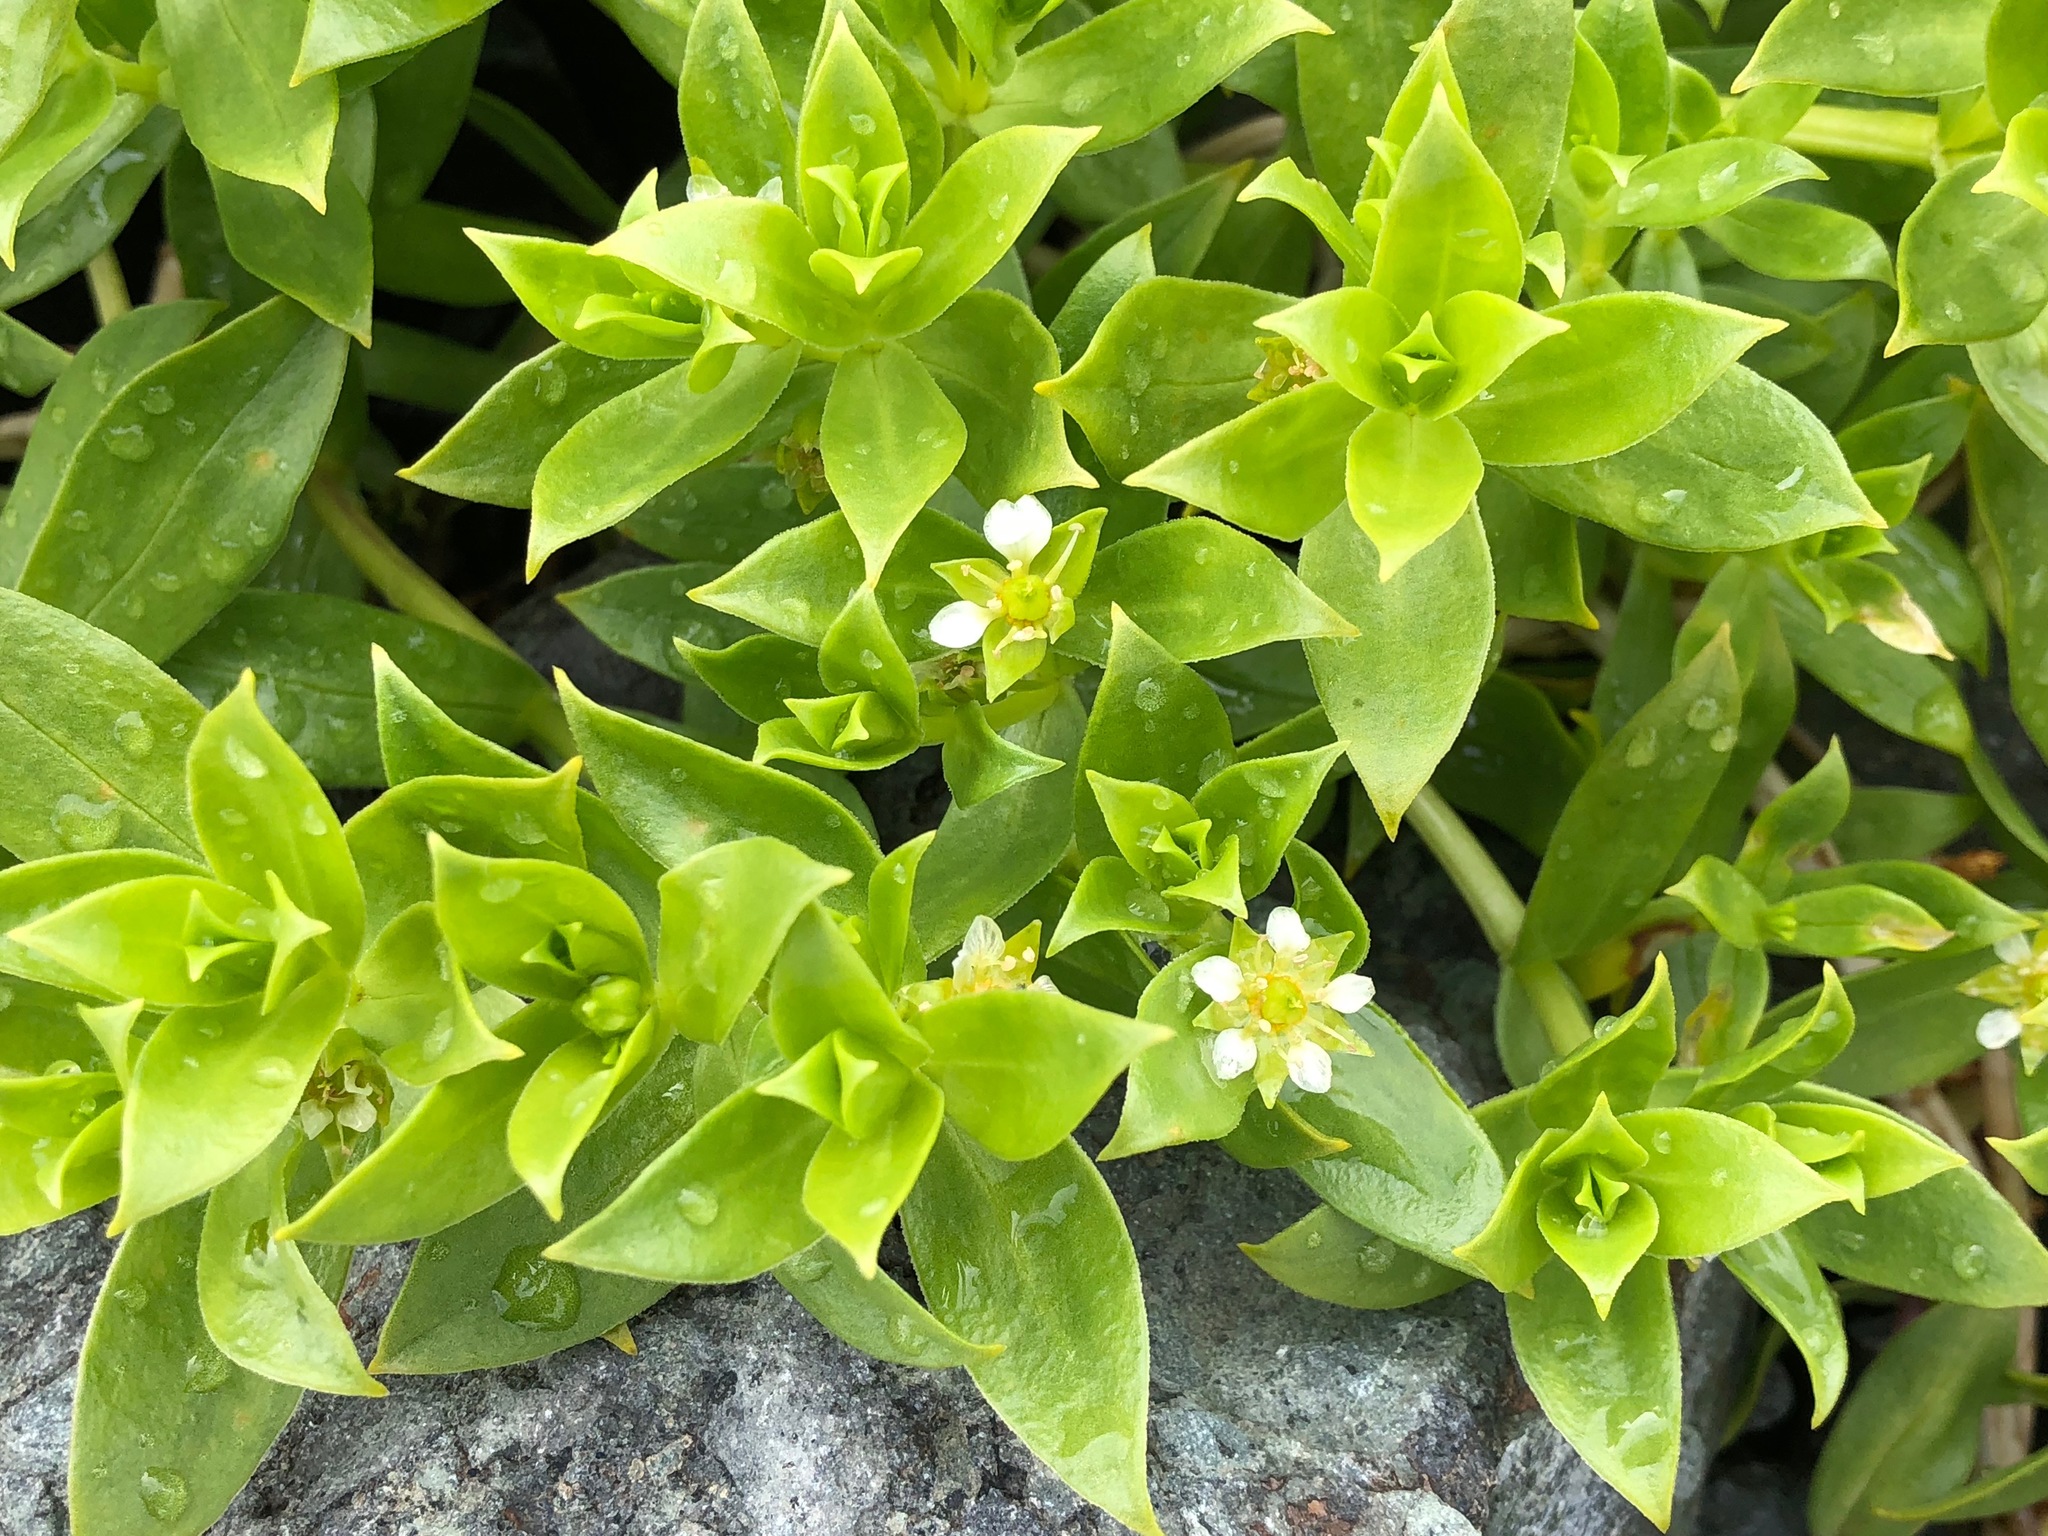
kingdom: Plantae
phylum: Tracheophyta
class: Magnoliopsida
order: Caryophyllales
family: Caryophyllaceae
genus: Honckenya
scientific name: Honckenya peploides
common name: Sea sandwort
